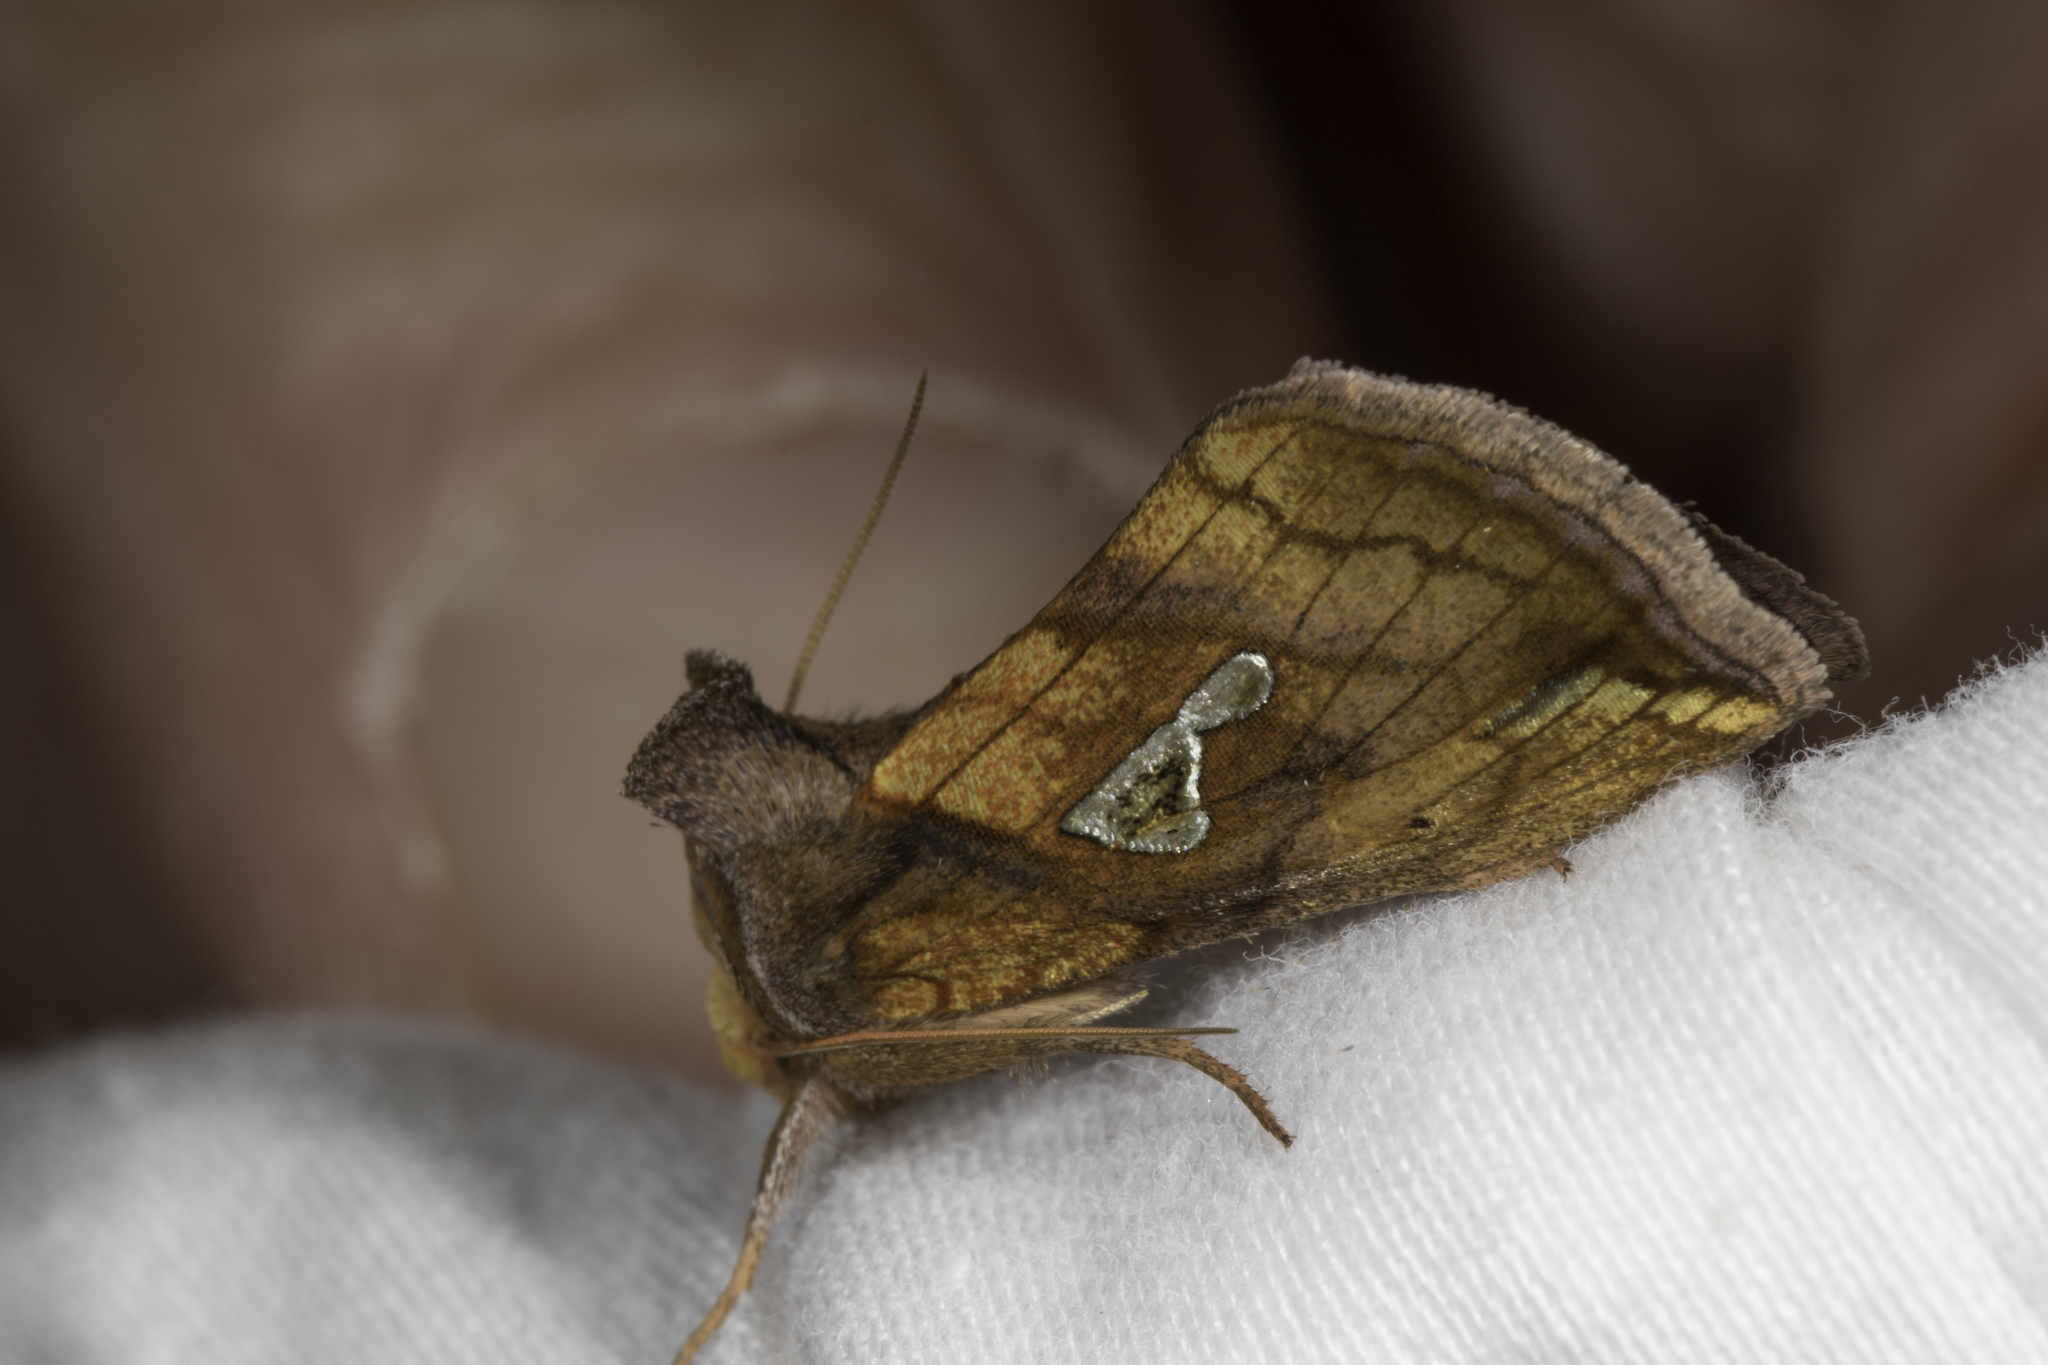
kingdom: Animalia
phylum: Arthropoda
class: Insecta
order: Lepidoptera
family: Noctuidae
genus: Plusia
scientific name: Plusia putnami
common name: Lempke's gold spot
